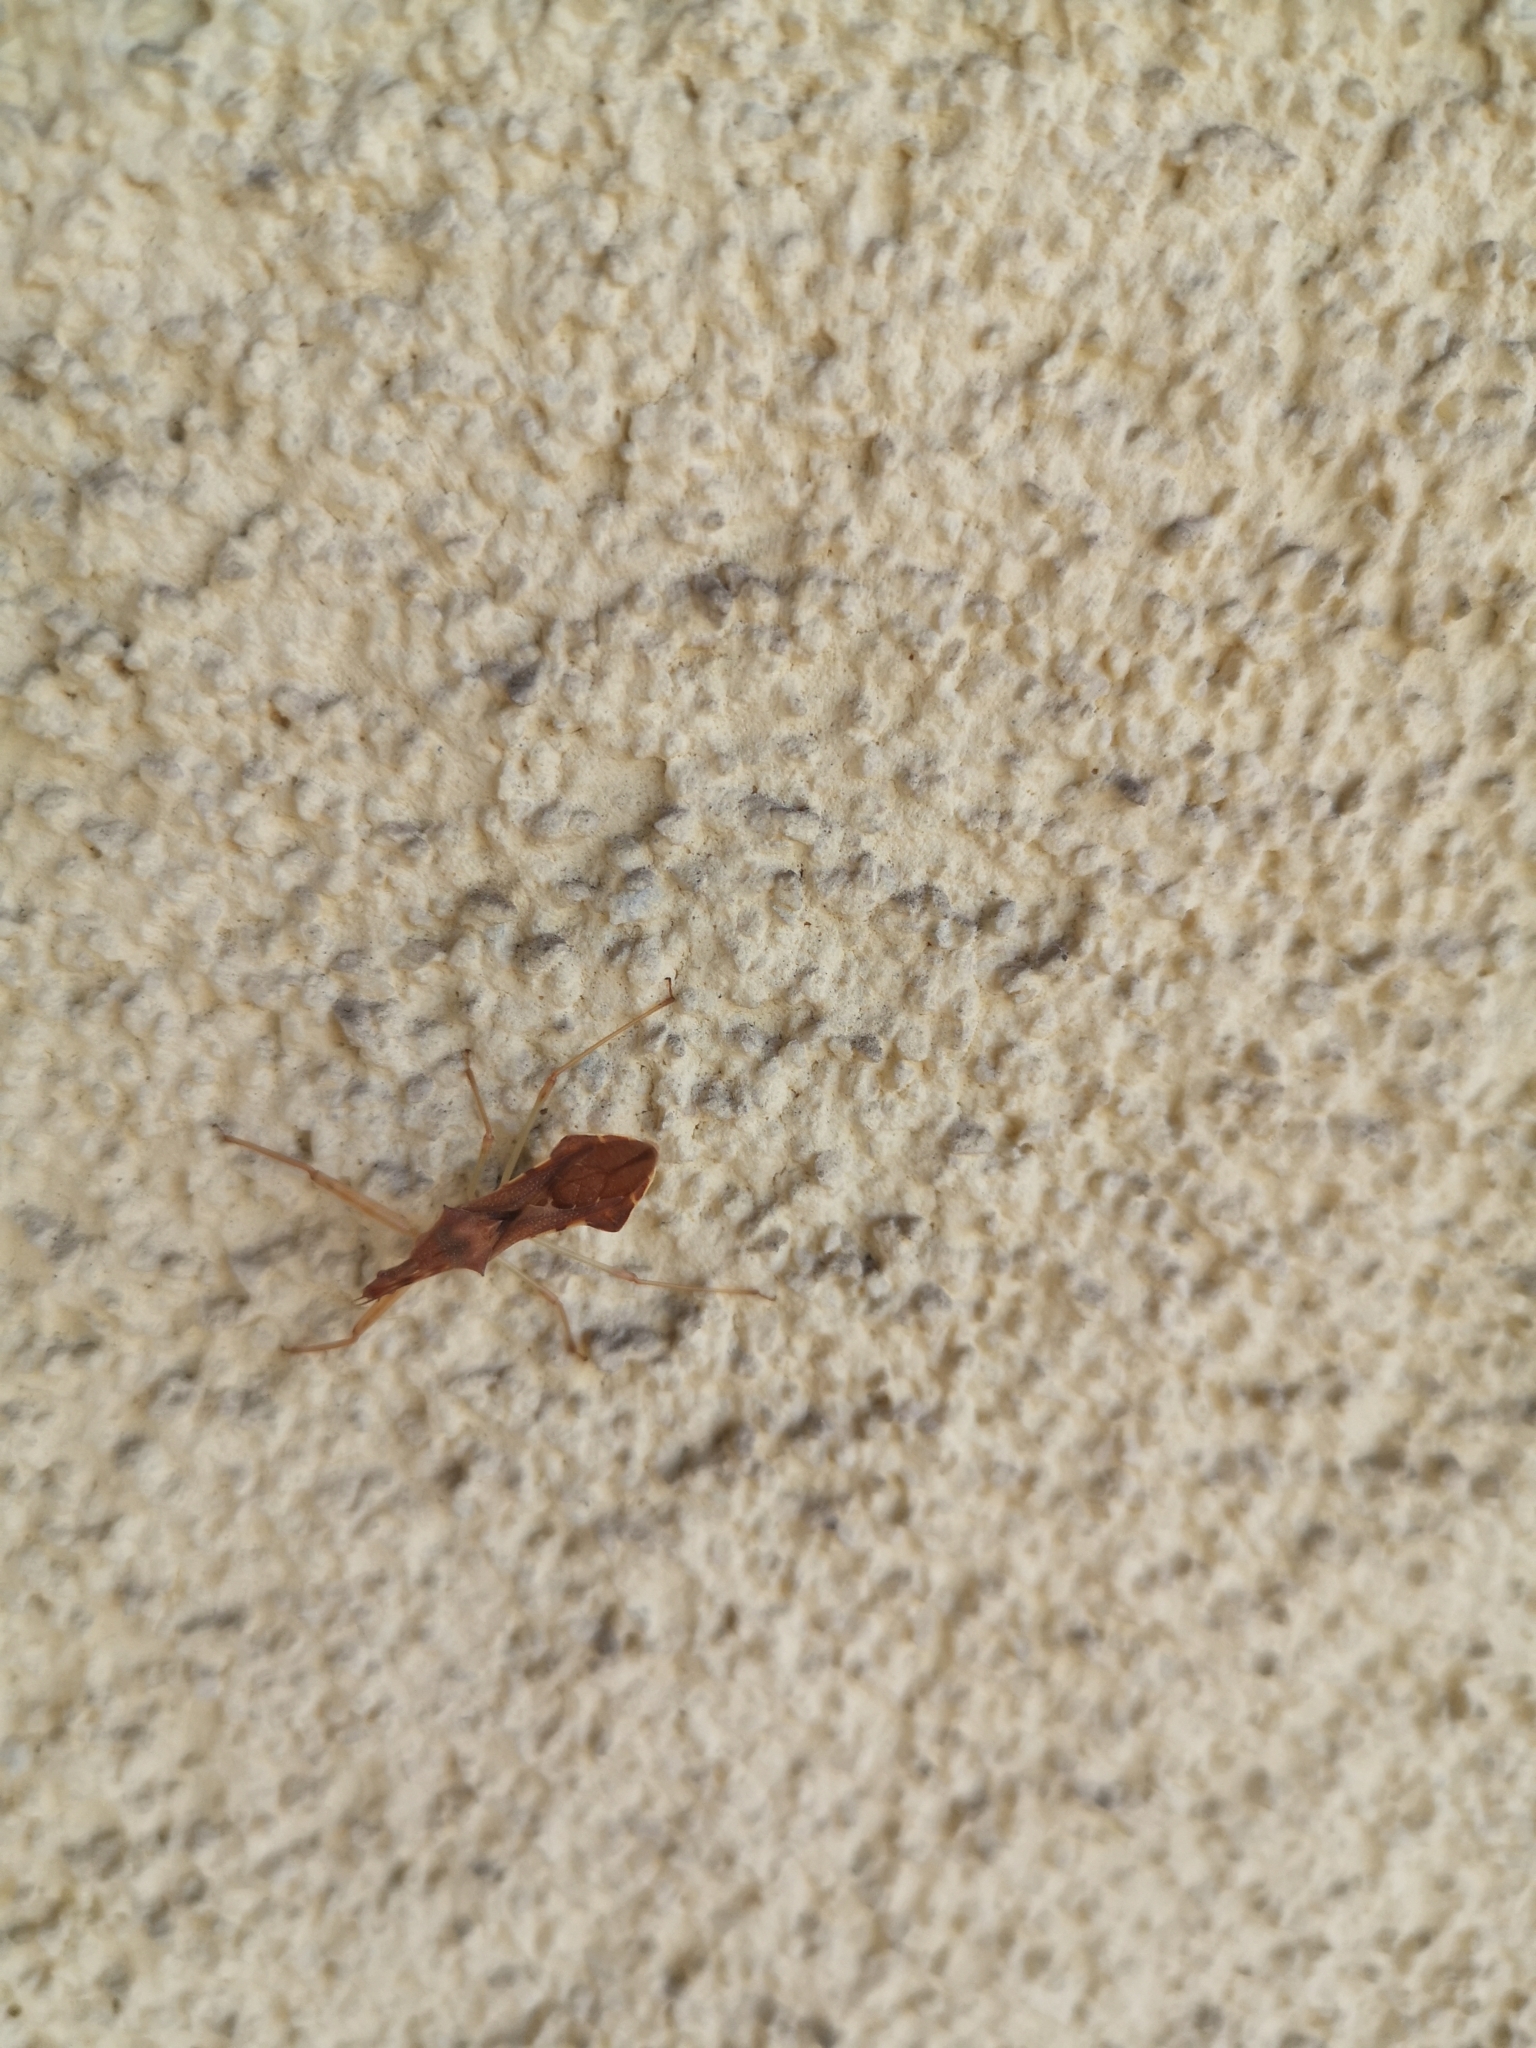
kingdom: Animalia
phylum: Arthropoda
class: Insecta
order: Hemiptera
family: Reduviidae
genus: Nagusta
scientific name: Nagusta goedelii
